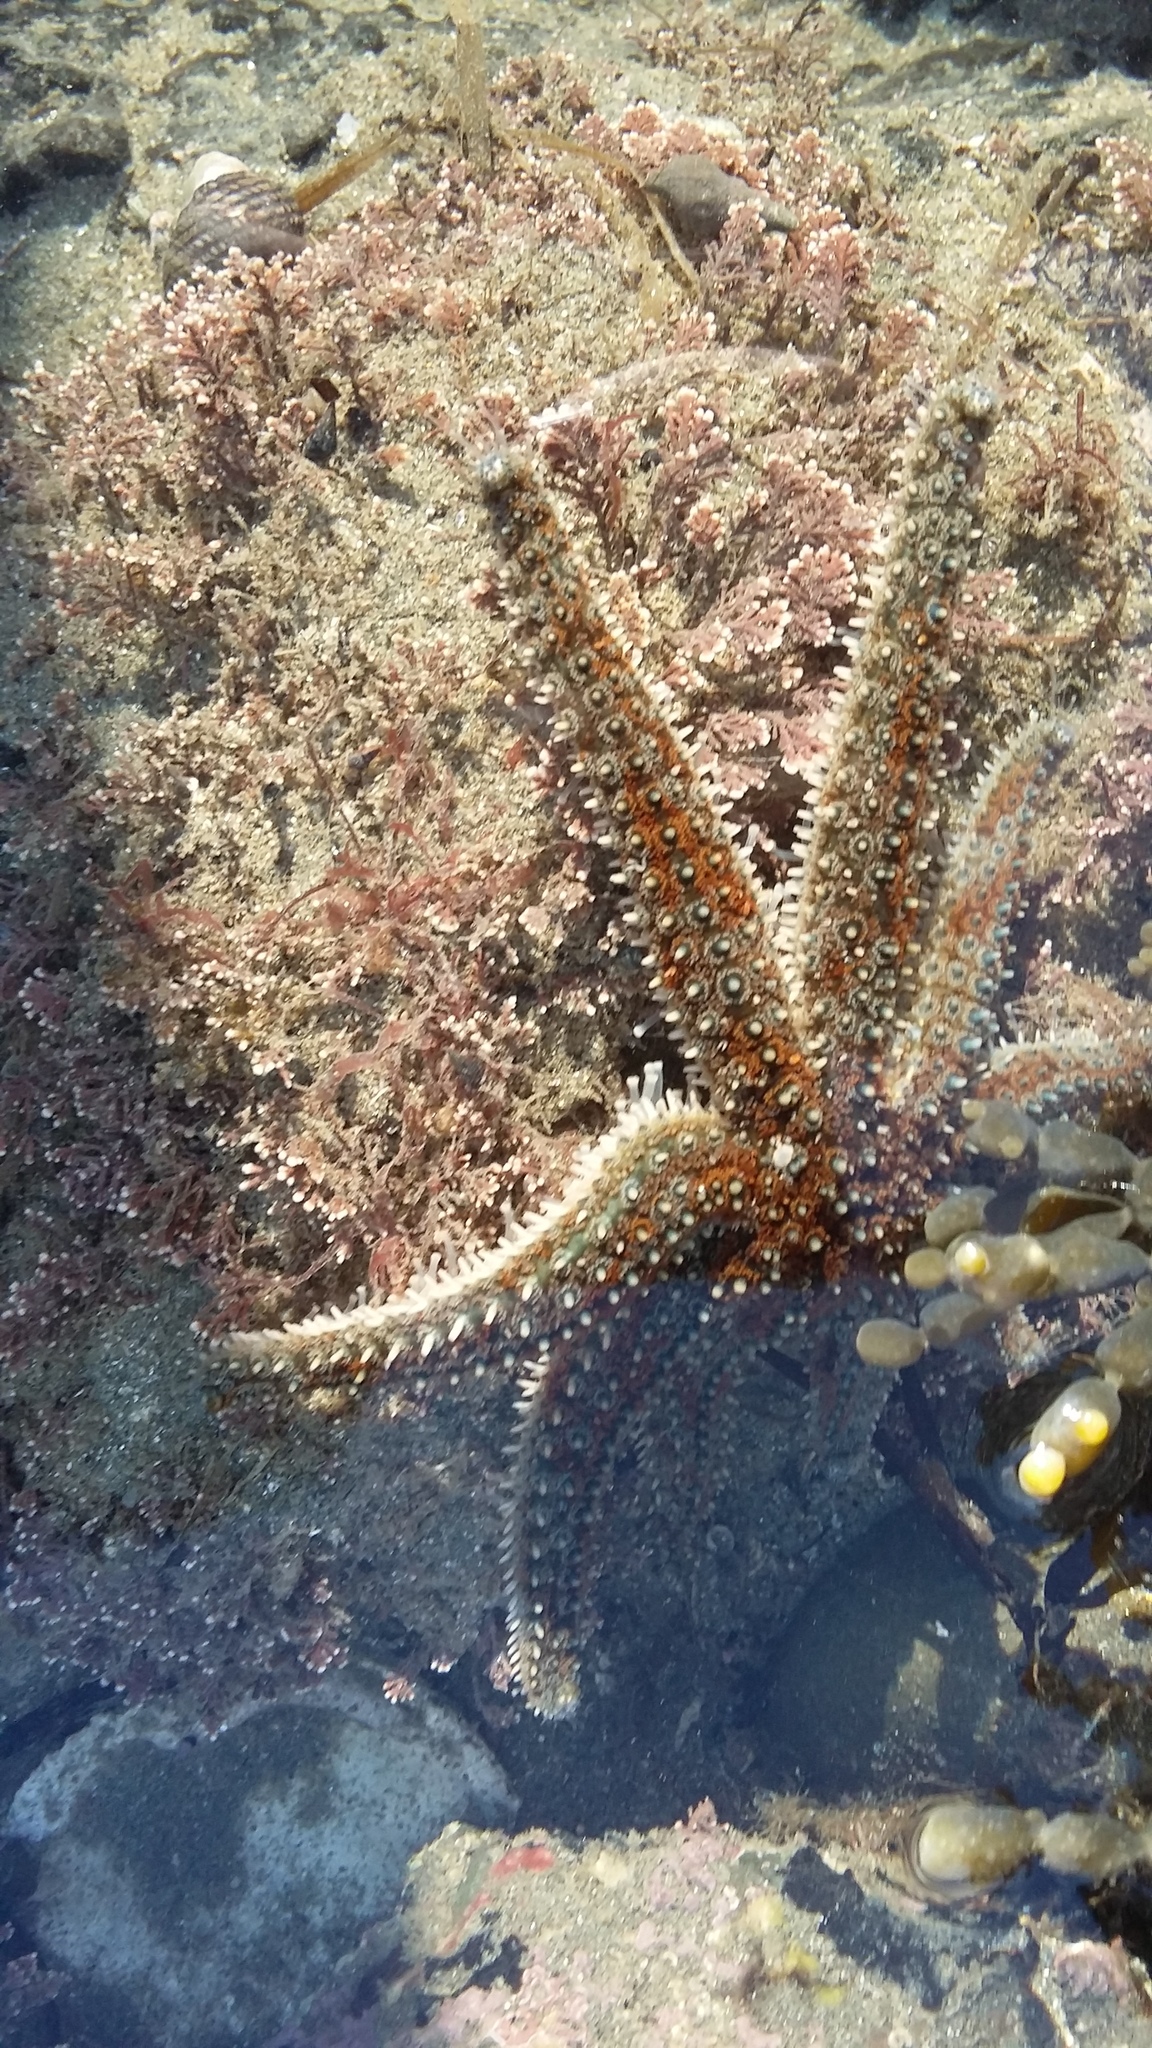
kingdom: Animalia
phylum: Echinodermata
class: Asteroidea
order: Forcipulatida
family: Asteriidae
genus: Coscinasterias
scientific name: Coscinasterias muricata
